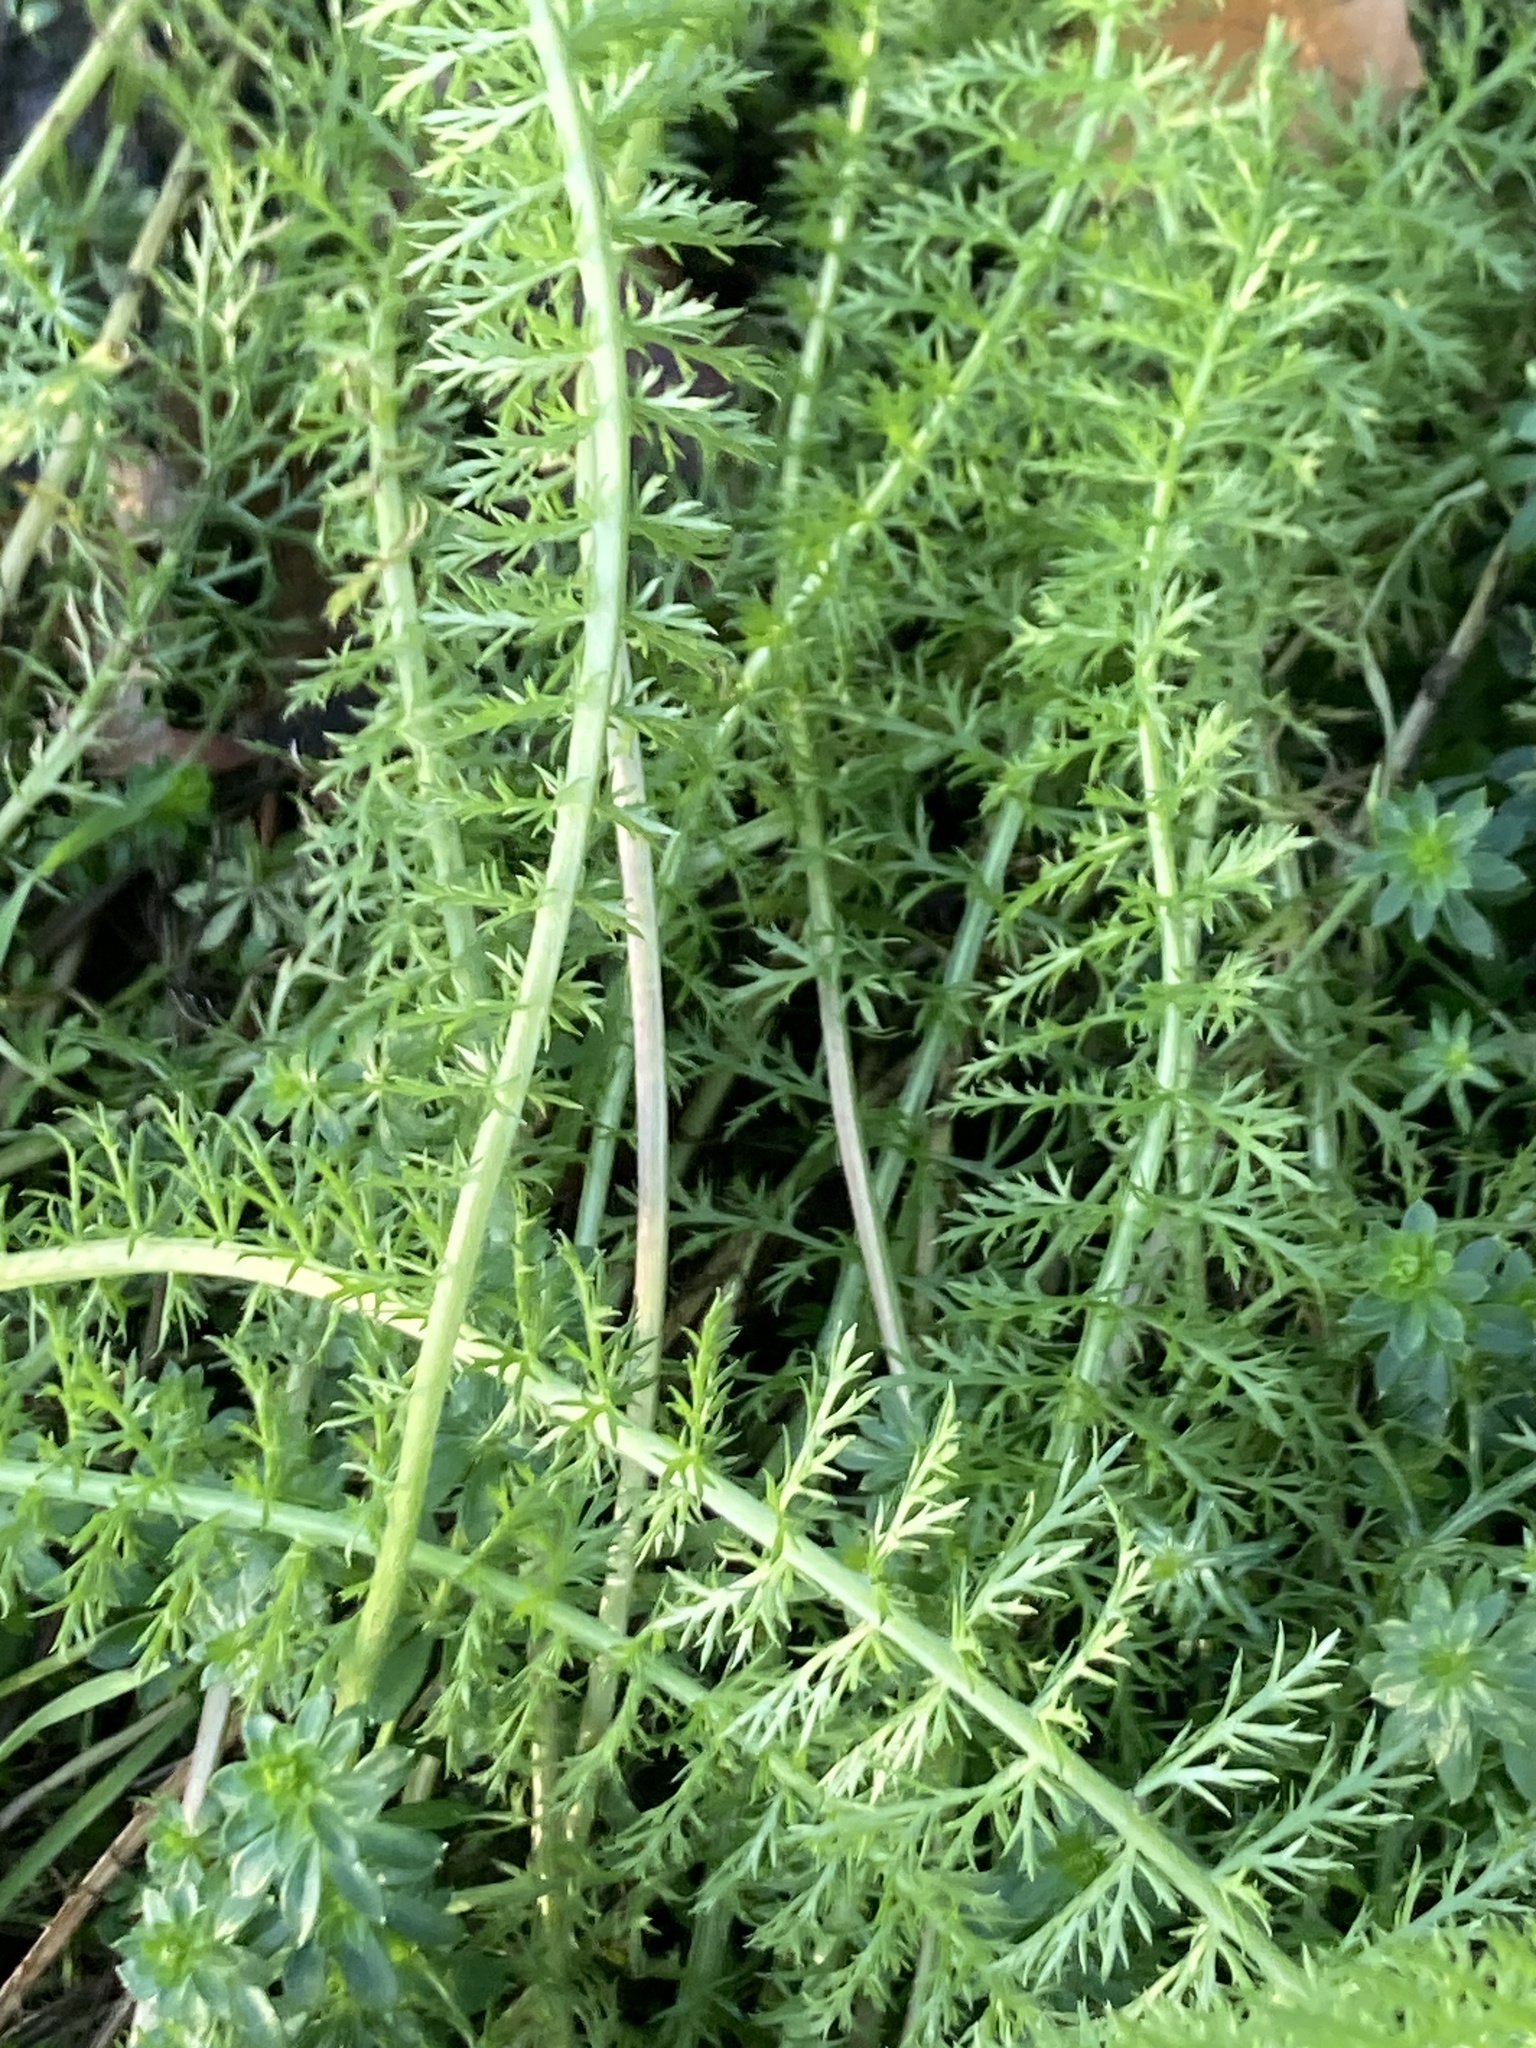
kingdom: Plantae
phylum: Tracheophyta
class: Magnoliopsida
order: Asterales
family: Asteraceae
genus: Achillea
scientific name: Achillea millefolium
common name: Yarrow
